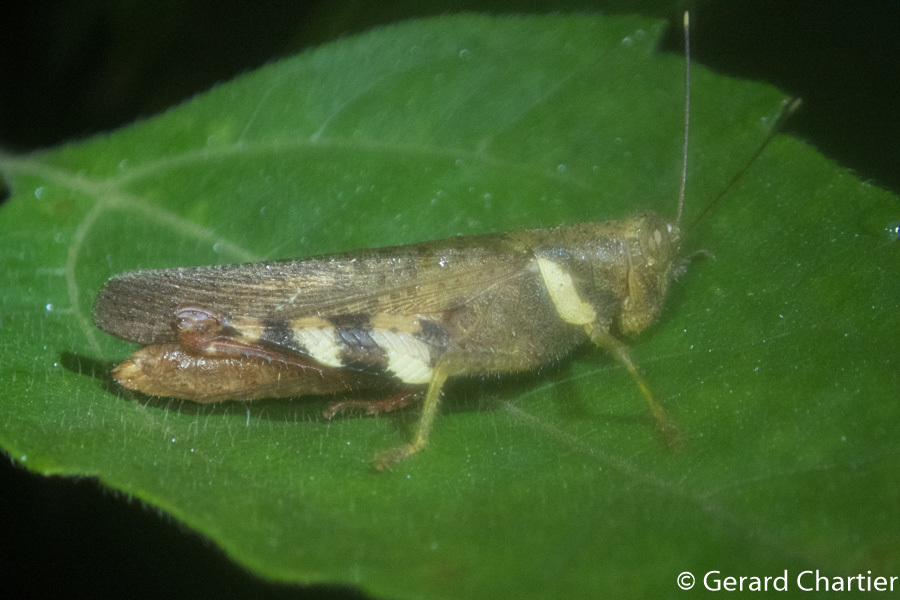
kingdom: Animalia
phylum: Arthropoda
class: Insecta
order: Orthoptera
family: Acrididae
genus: Apalacris
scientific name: Apalacris varicornis
